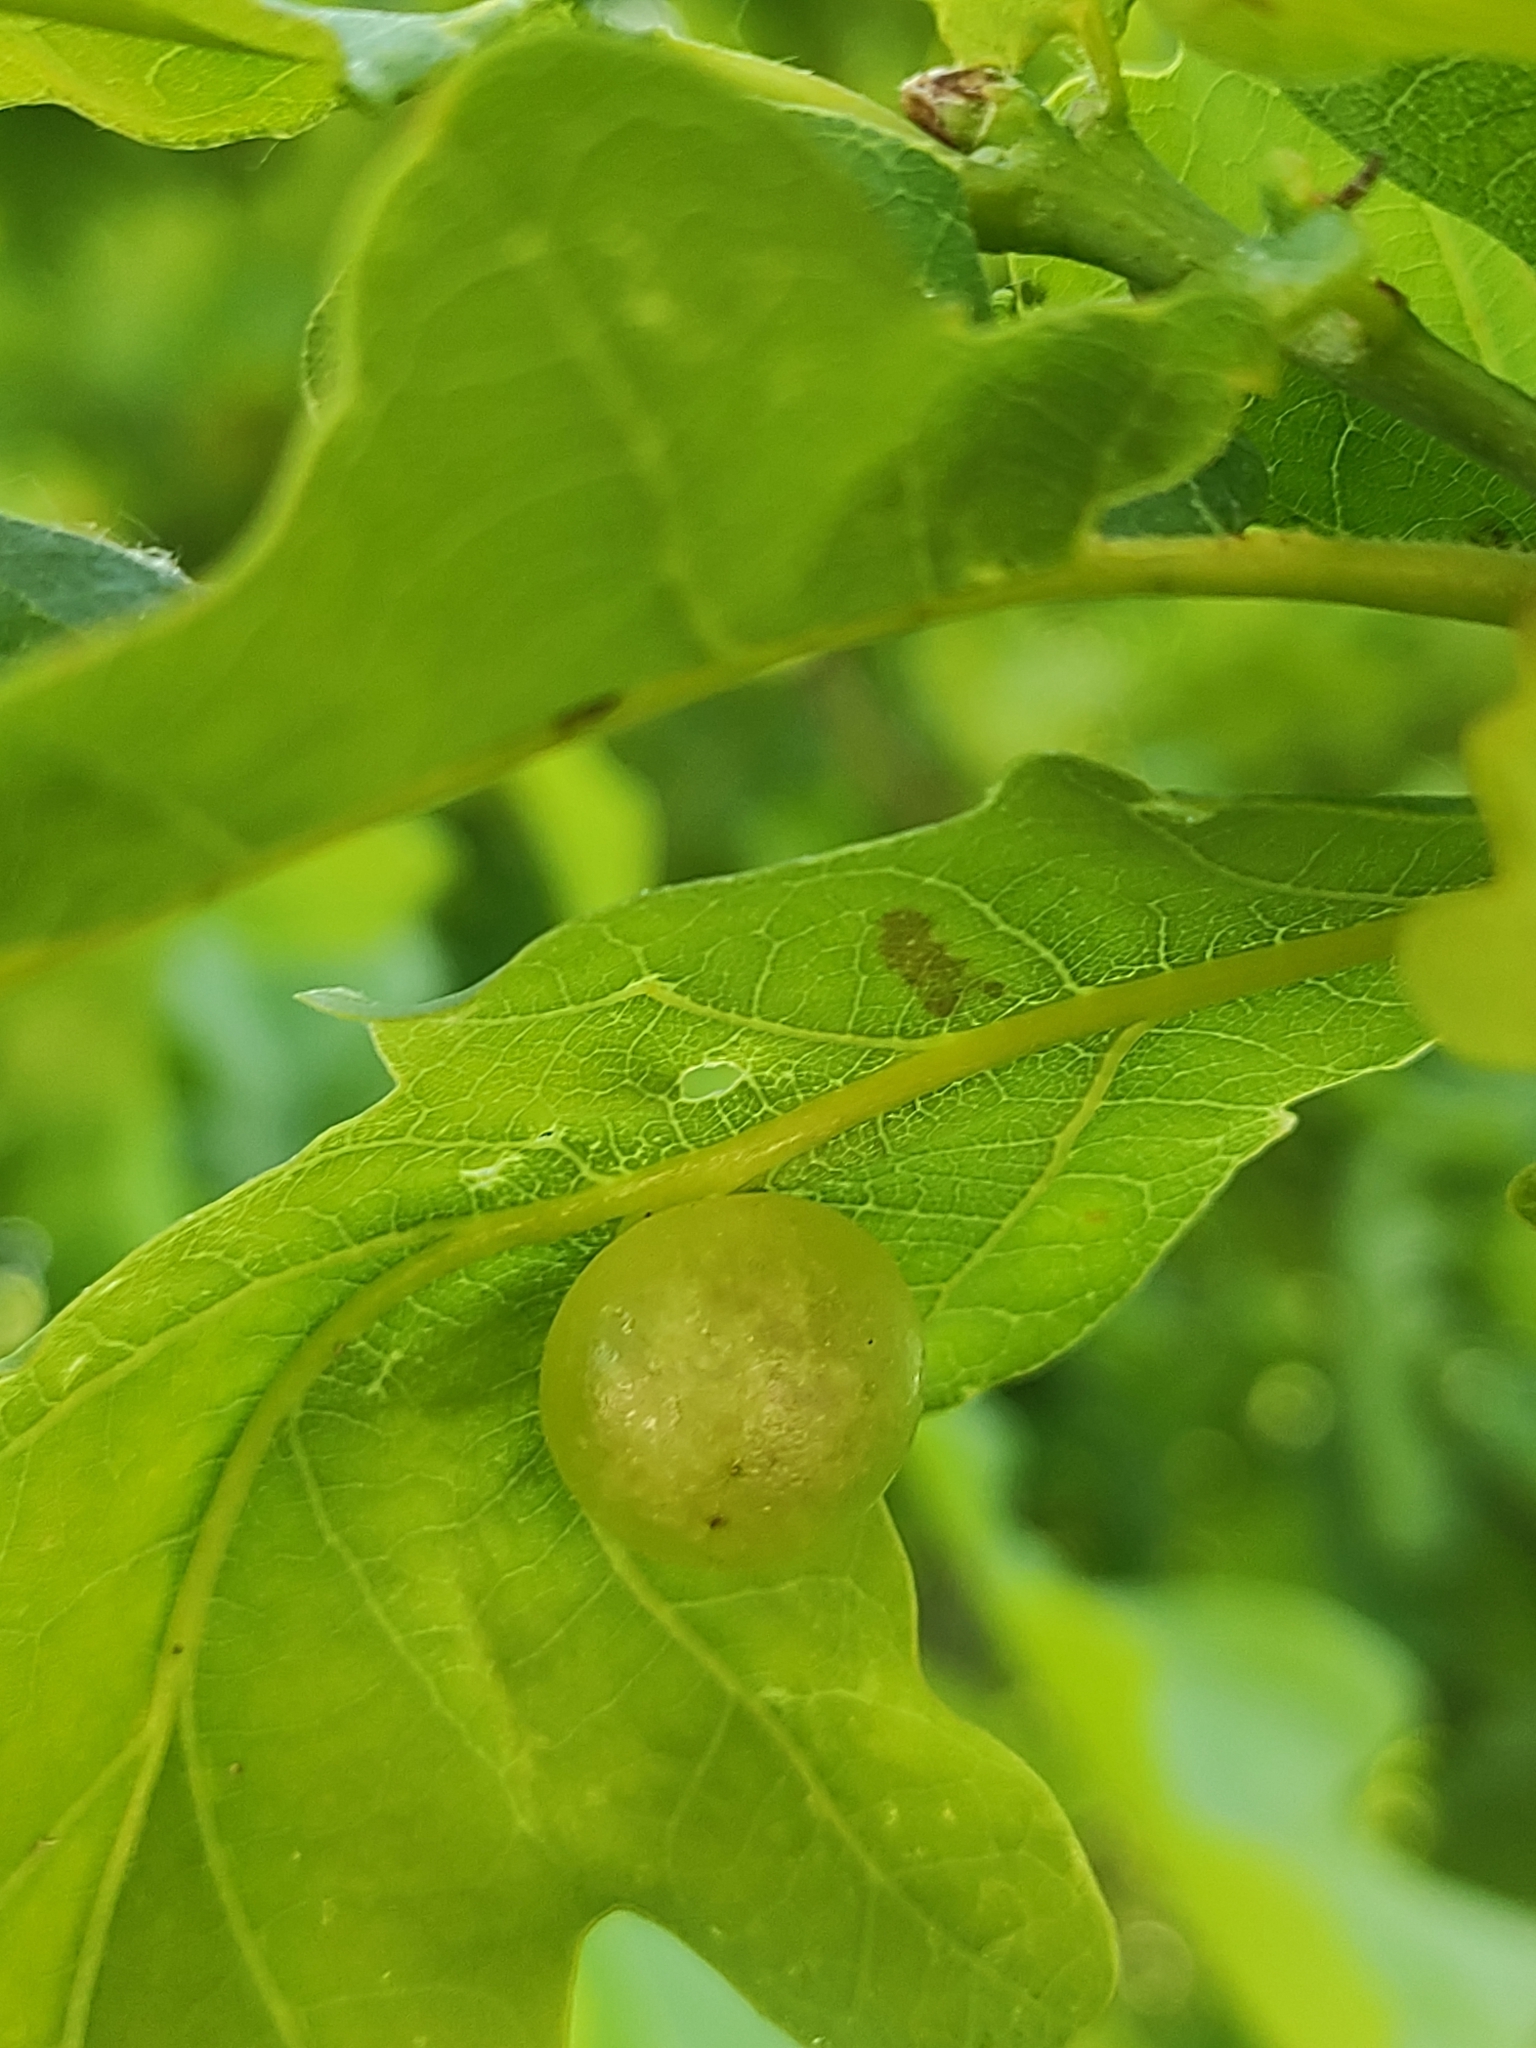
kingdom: Animalia
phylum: Arthropoda
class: Insecta
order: Hymenoptera
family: Cynipidae
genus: Neuroterus
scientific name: Neuroterus quercusbaccarum
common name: Common spangle gall
